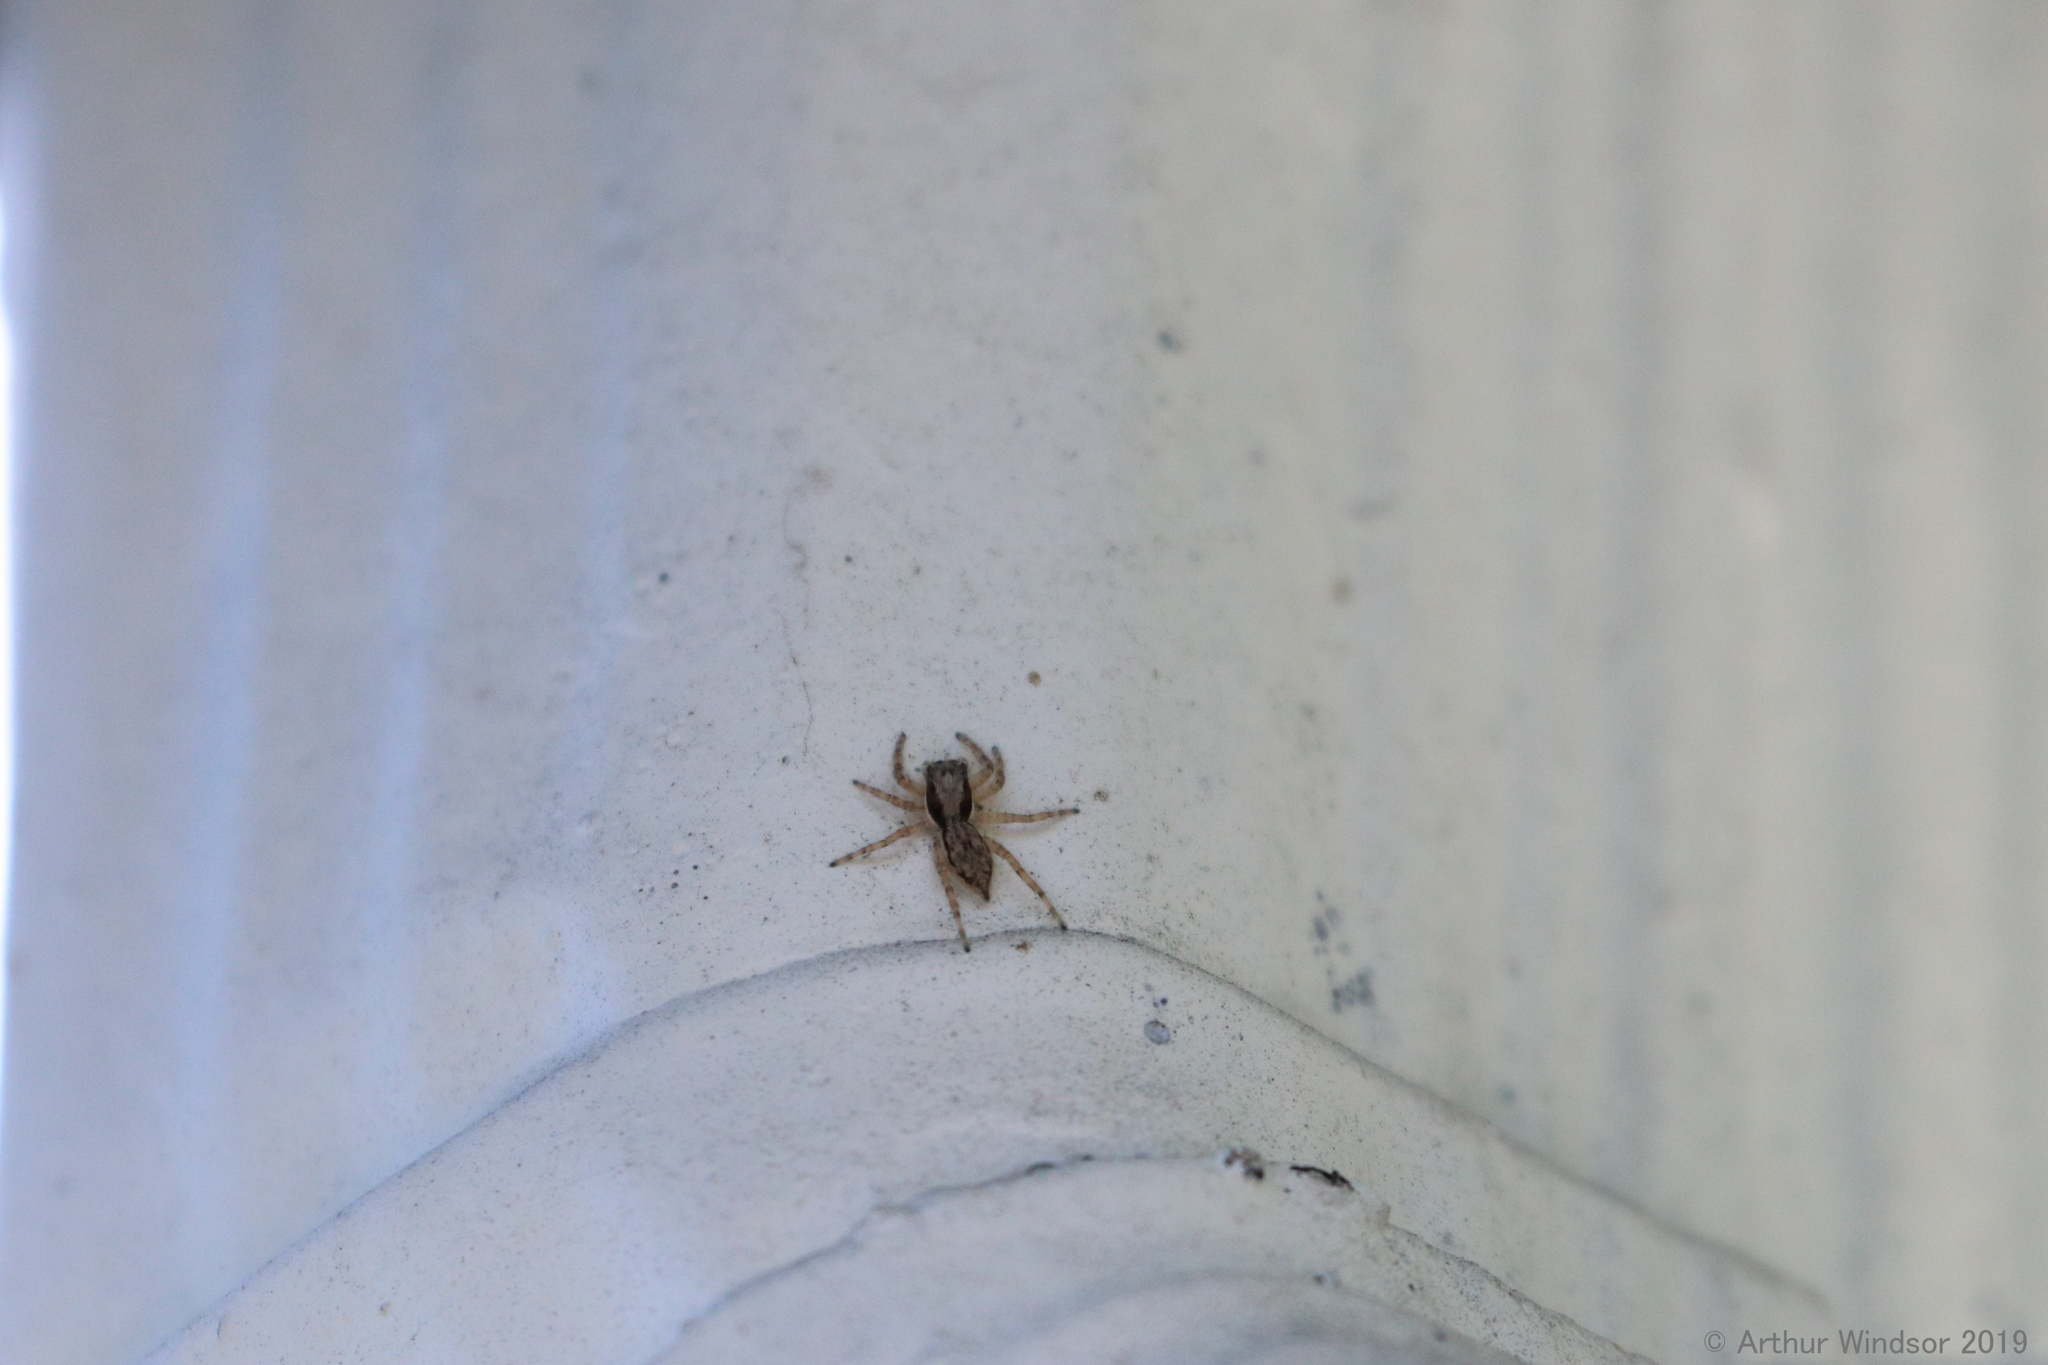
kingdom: Animalia
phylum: Arthropoda
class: Arachnida
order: Araneae
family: Salticidae
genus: Menemerus
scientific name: Menemerus bivittatus
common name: Gray wall jumper
